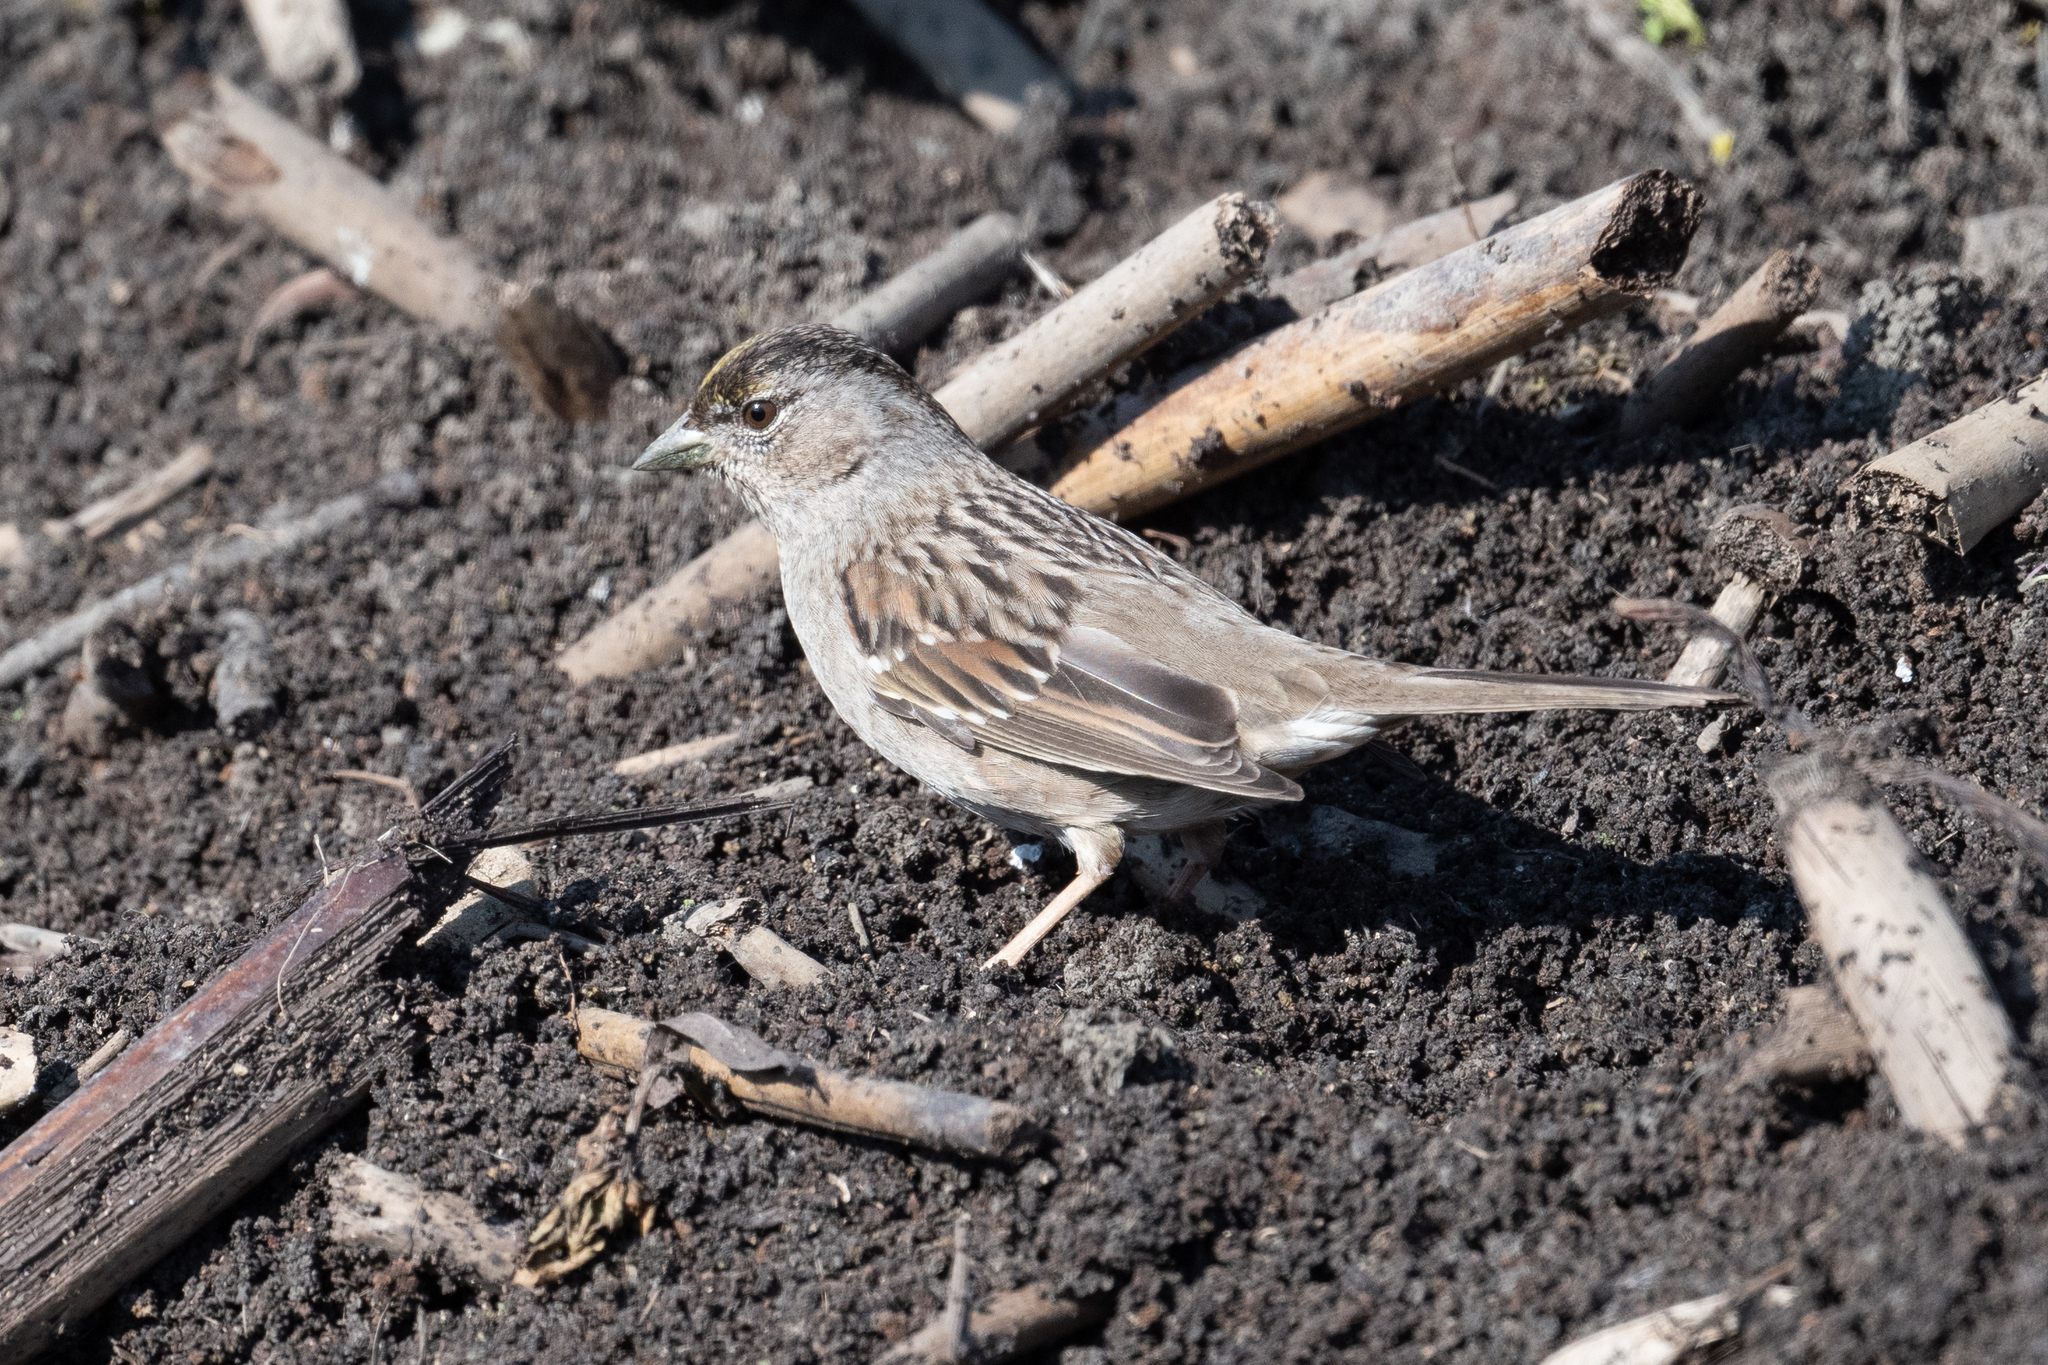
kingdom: Animalia
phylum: Chordata
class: Aves
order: Passeriformes
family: Passerellidae
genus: Zonotrichia
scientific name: Zonotrichia atricapilla
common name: Golden-crowned sparrow
